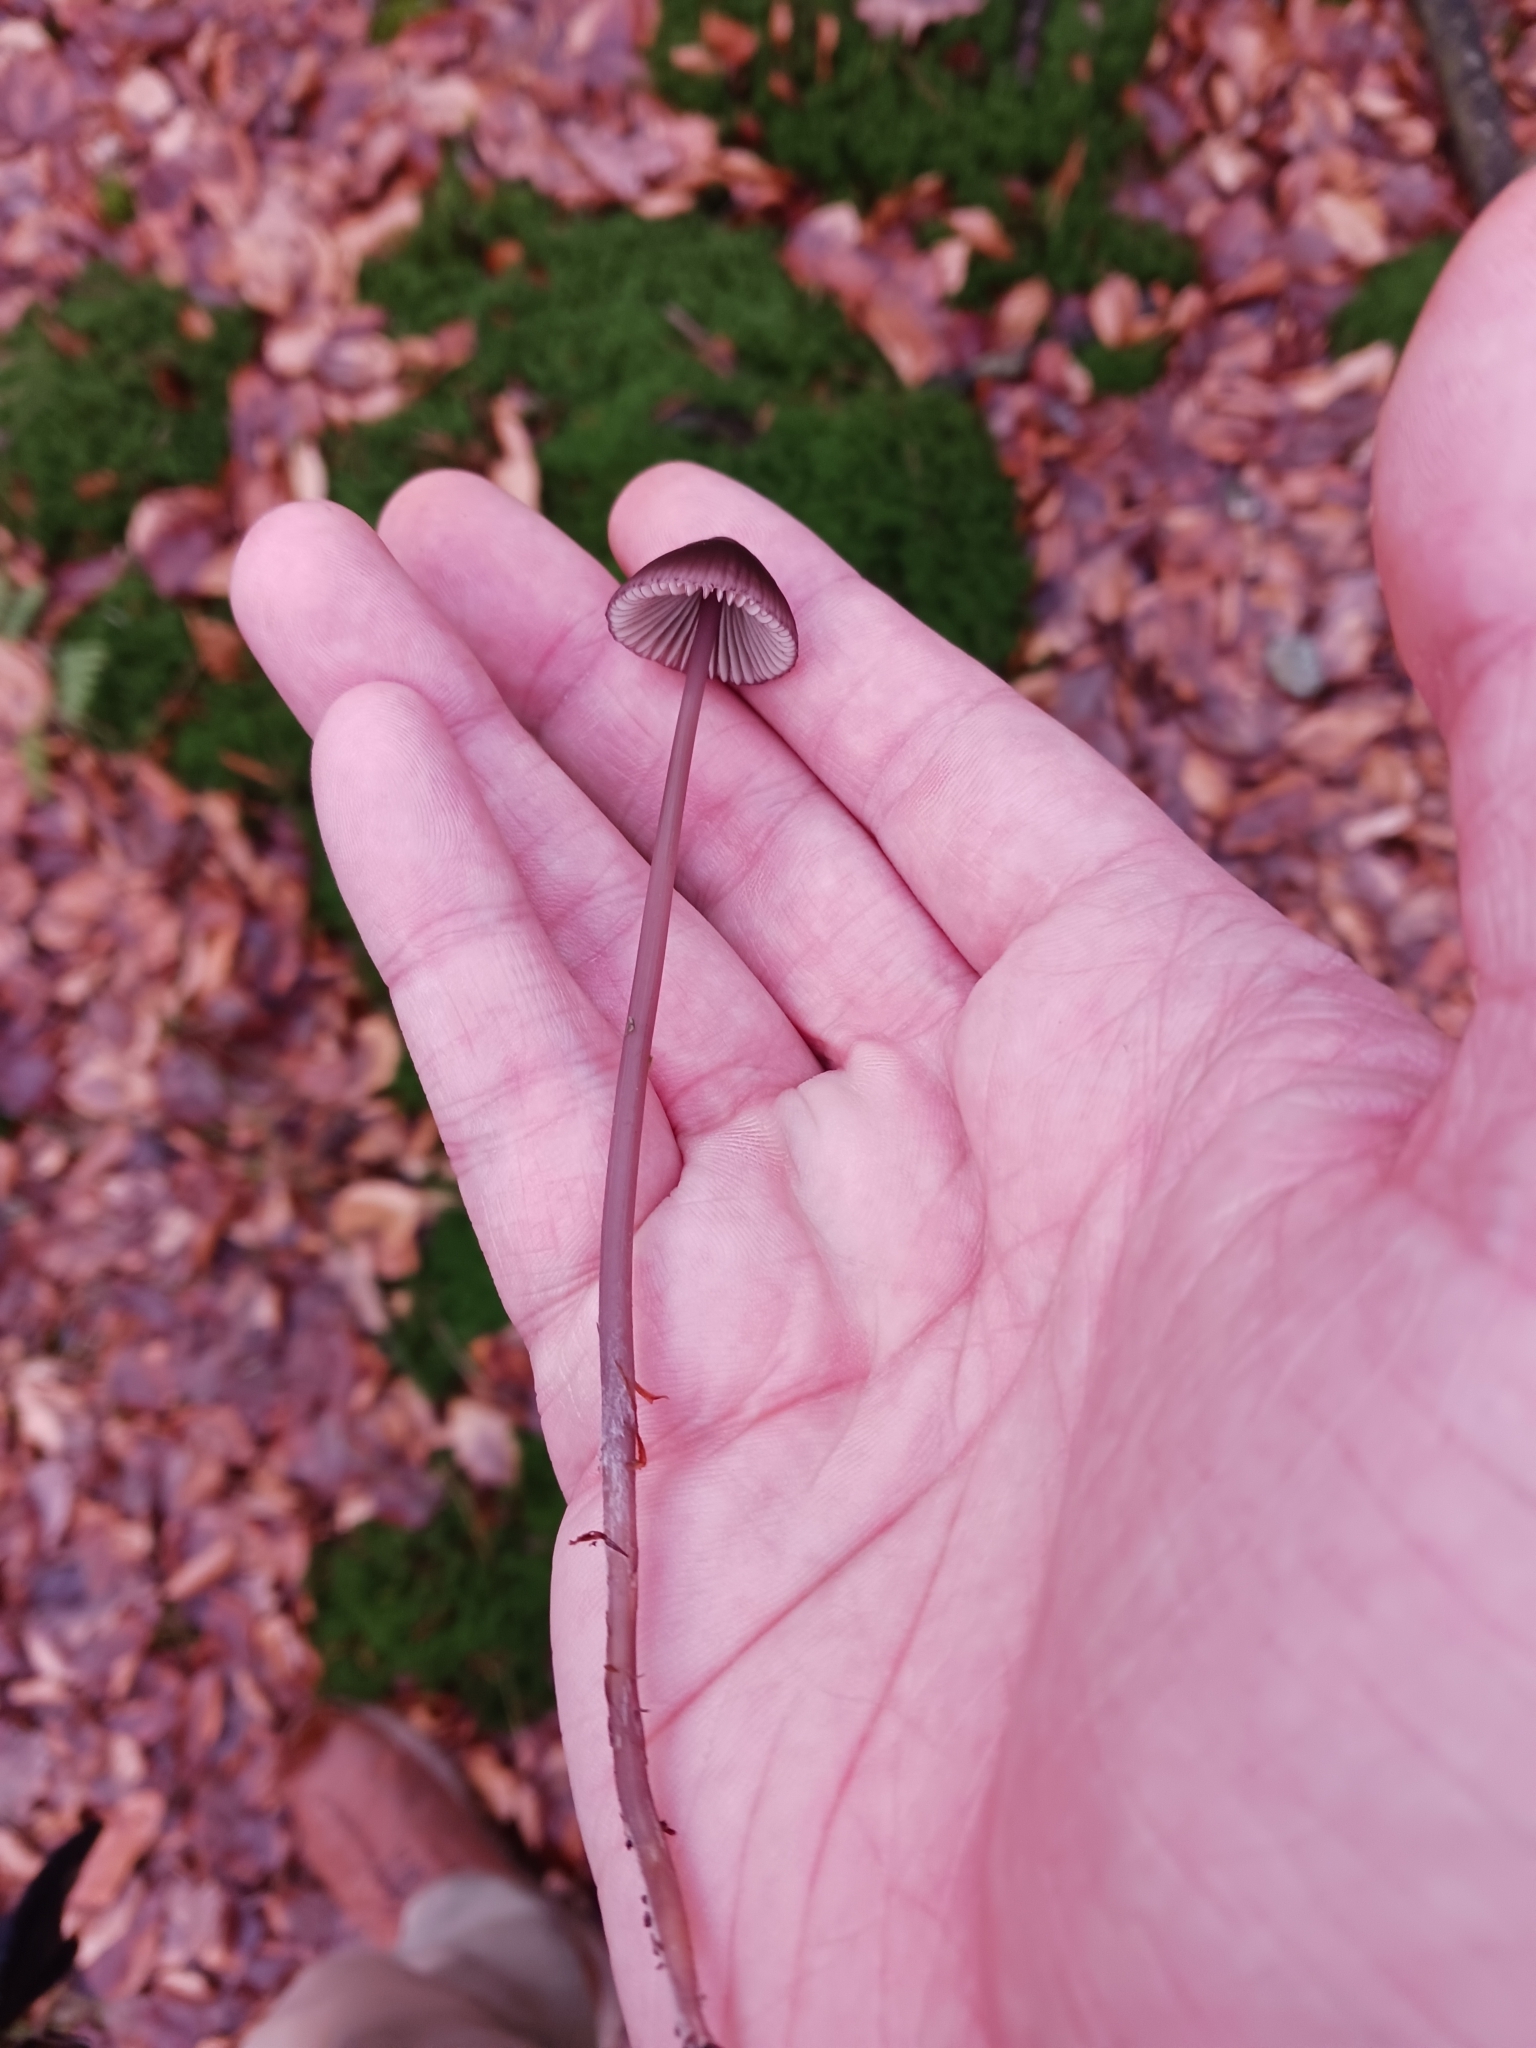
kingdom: Fungi
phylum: Basidiomycota
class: Agaricomycetes
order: Agaricales
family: Mycenaceae
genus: Mycena
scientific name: Mycena sanguinolenta
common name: Bleeding bonnet
